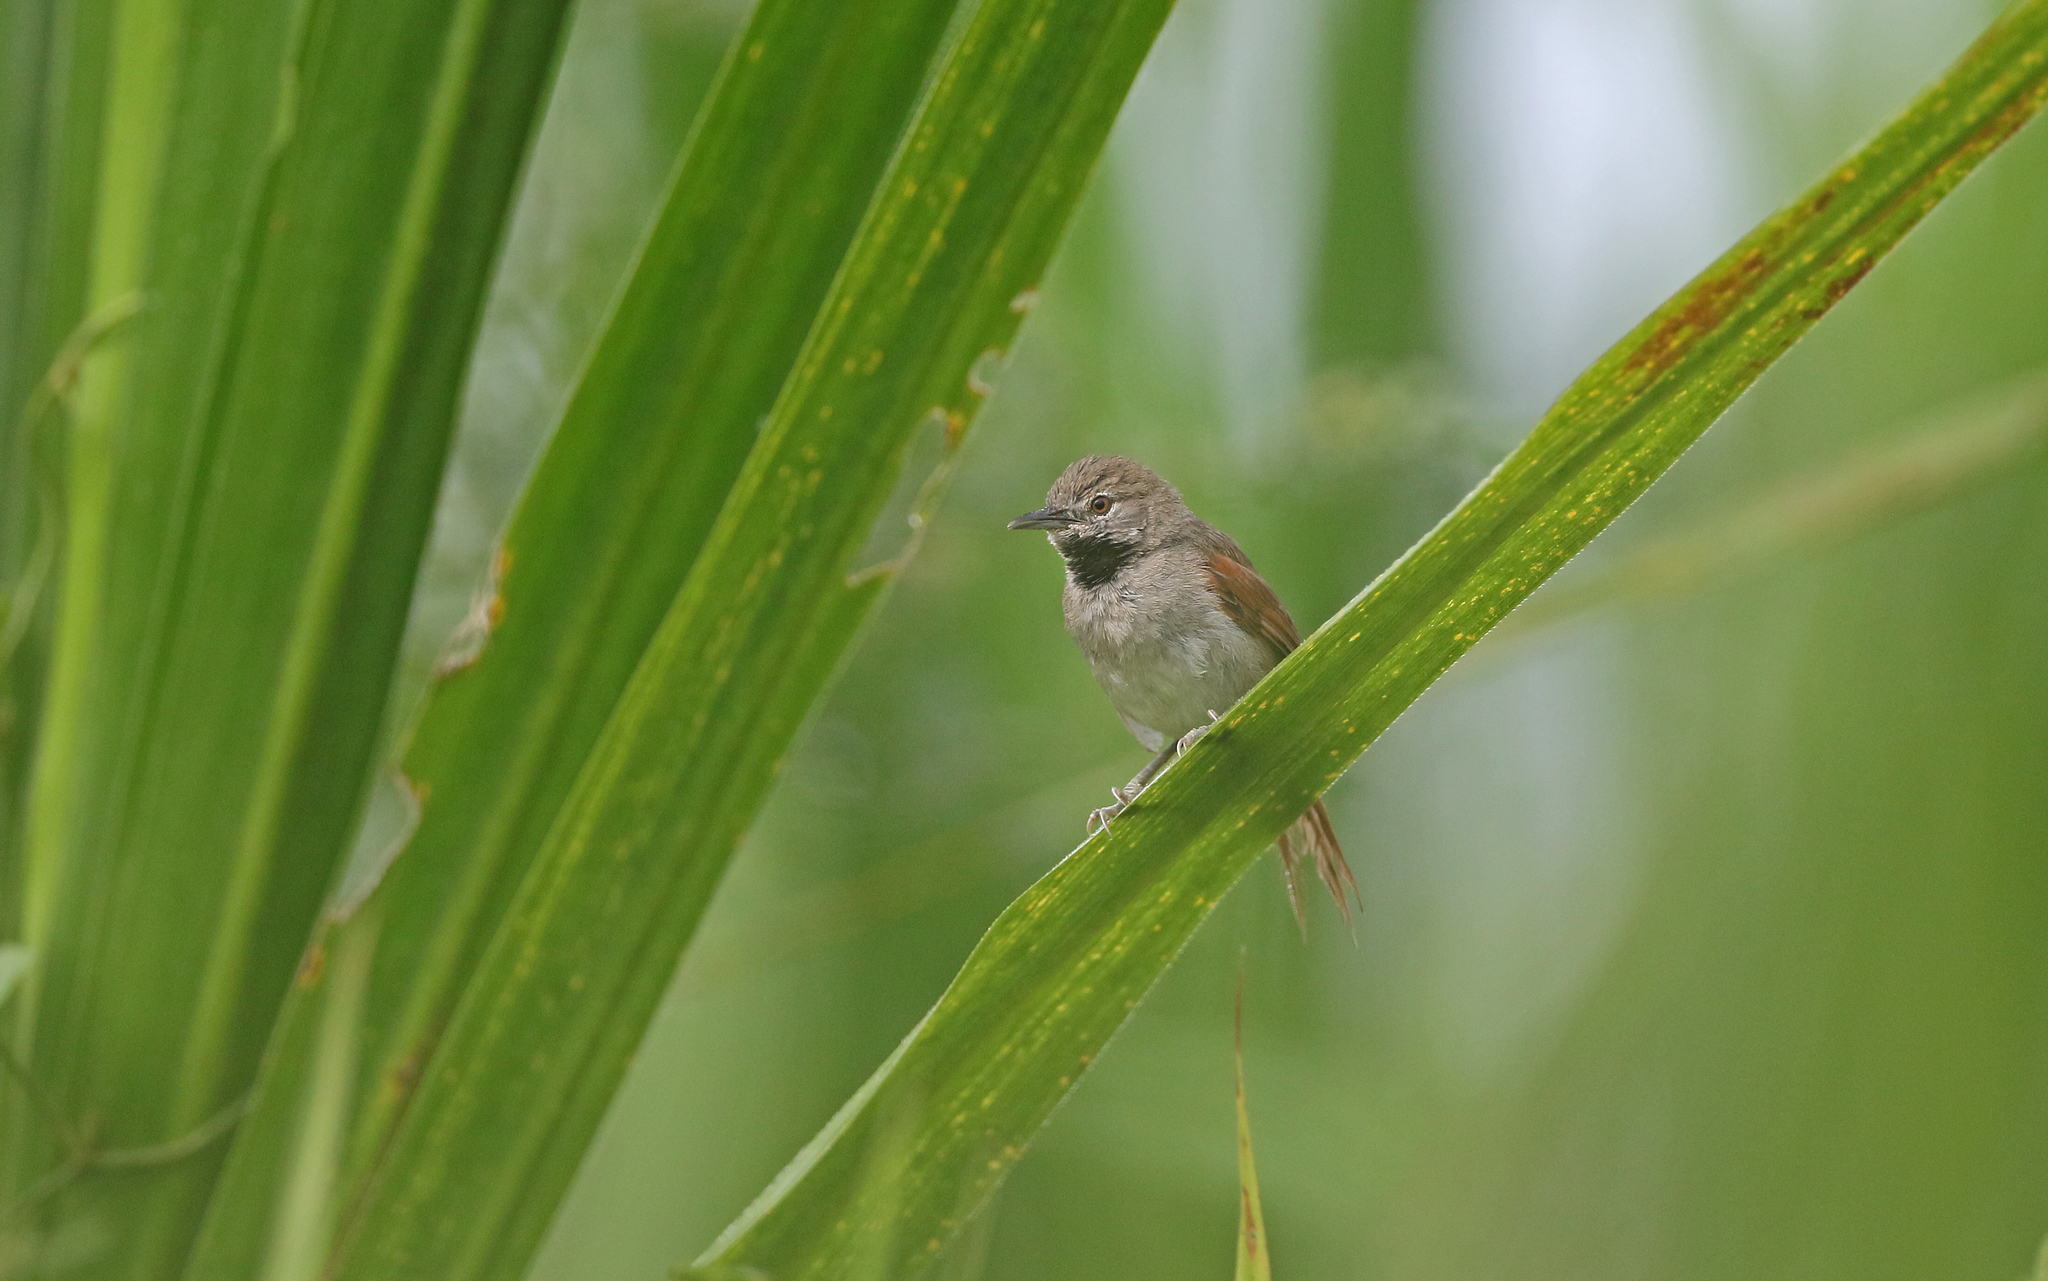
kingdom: Animalia
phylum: Chordata
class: Aves
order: Passeriformes
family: Furnariidae
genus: Synallaxis
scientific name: Synallaxis propinqua
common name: White-bellied spinetail
